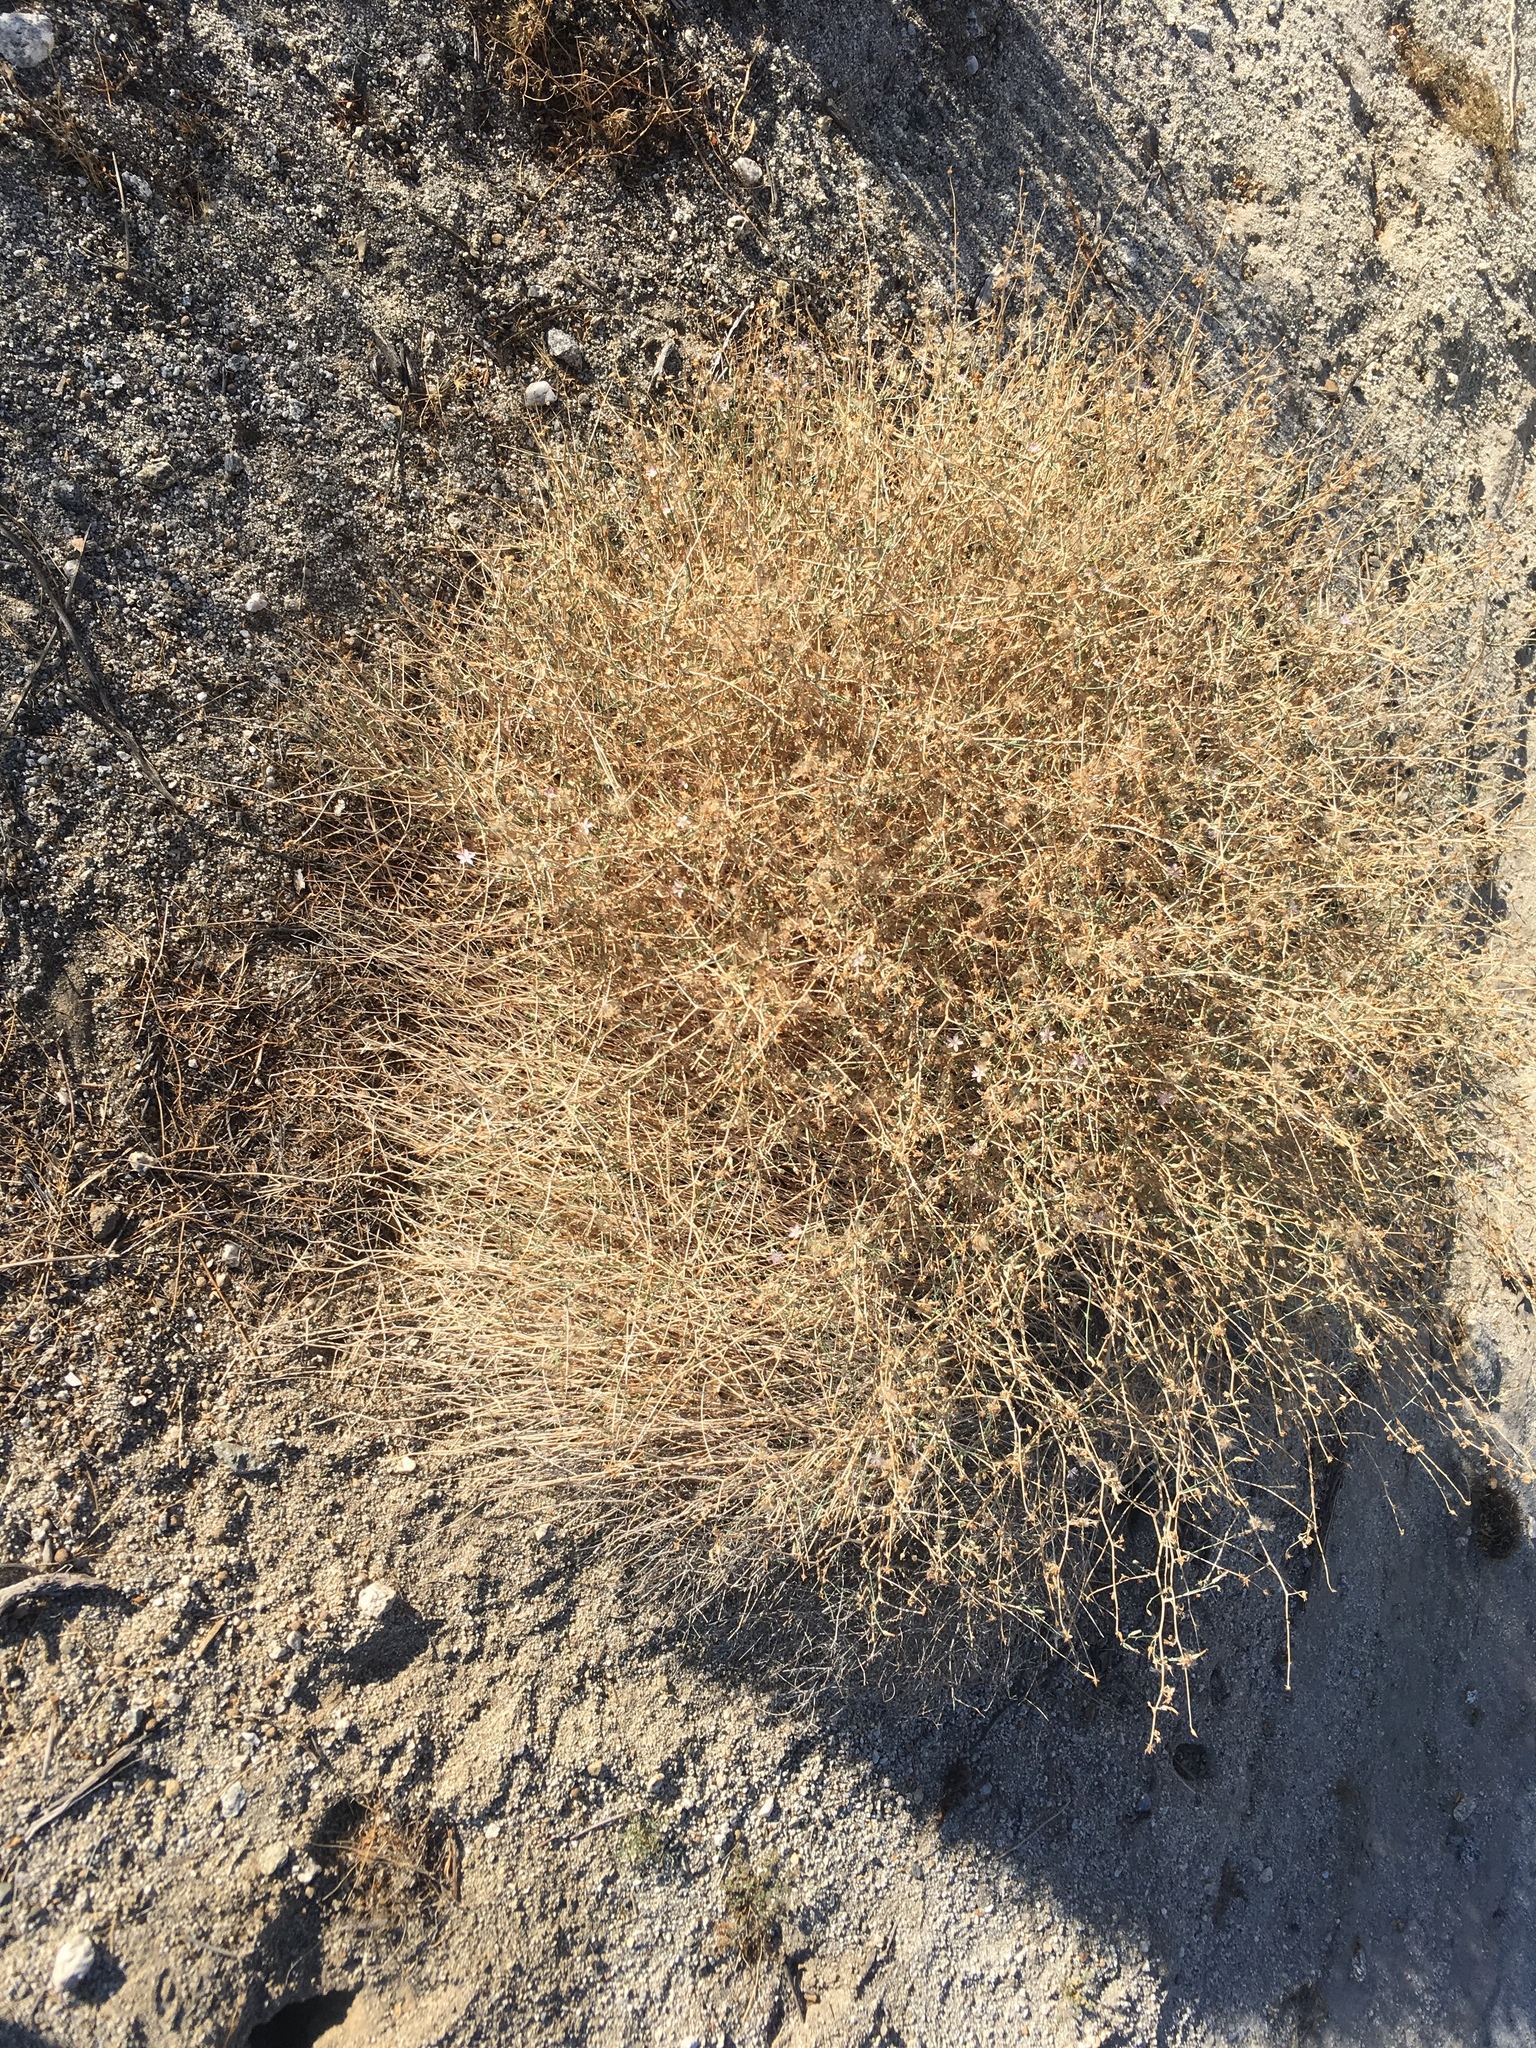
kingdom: Plantae
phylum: Tracheophyta
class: Magnoliopsida
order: Asterales
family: Asteraceae
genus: Stephanomeria
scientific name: Stephanomeria pauciflora
